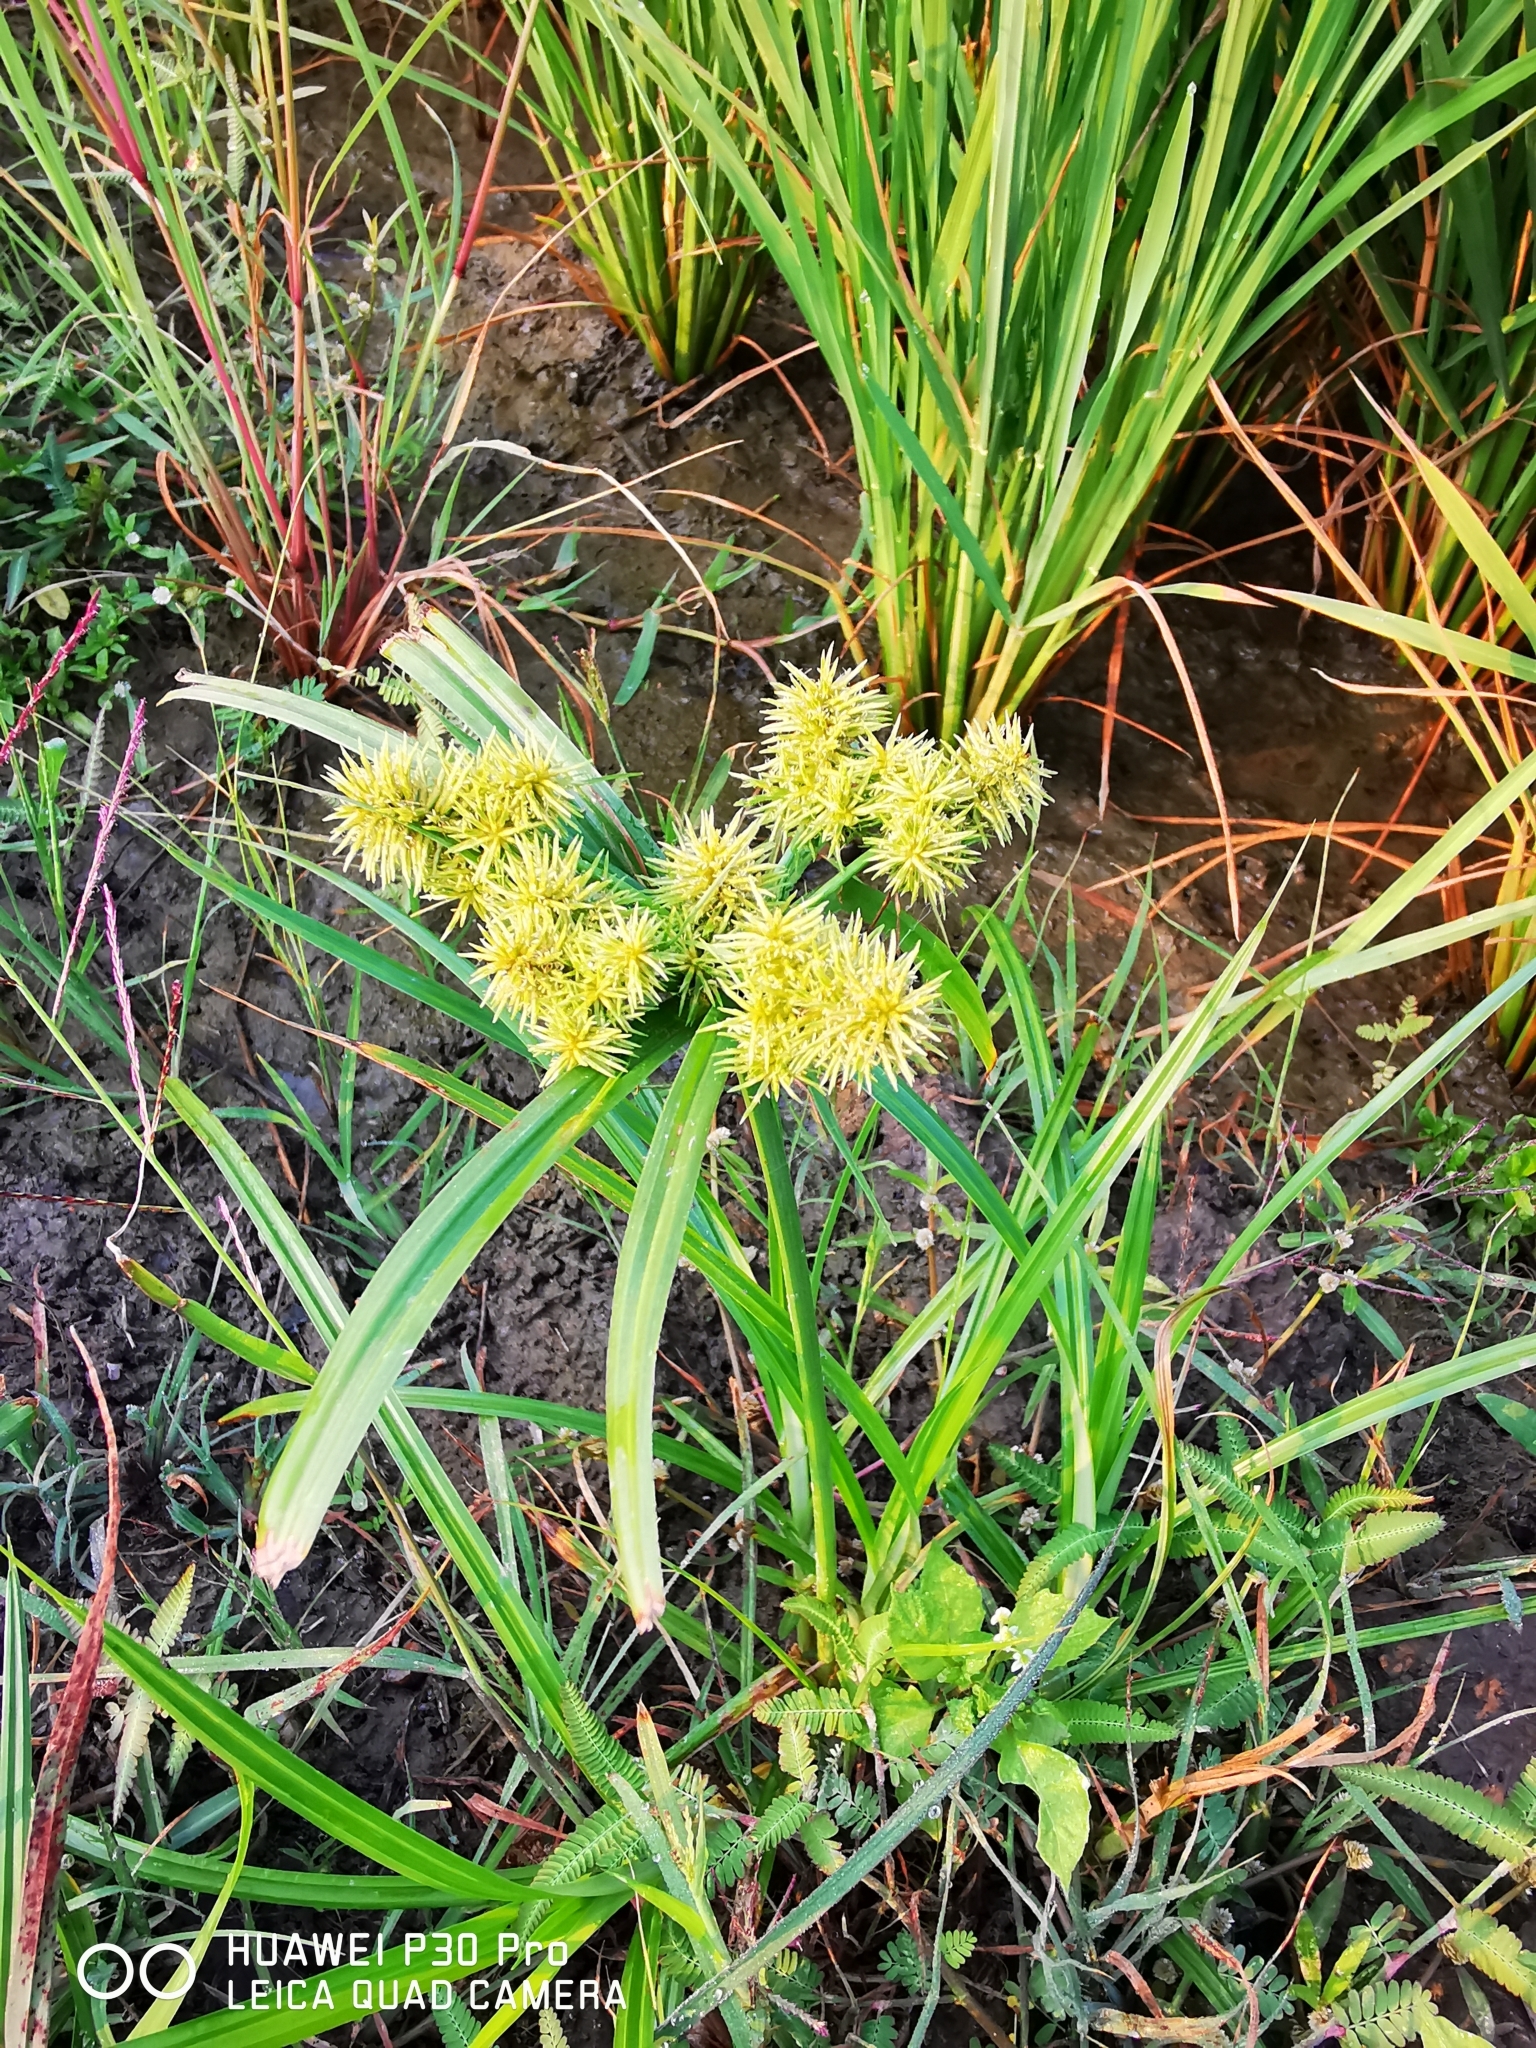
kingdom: Plantae
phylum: Tracheophyta
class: Liliopsida
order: Poales
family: Cyperaceae
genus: Cyperus
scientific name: Cyperus odoratus
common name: Fragrant flatsedge
